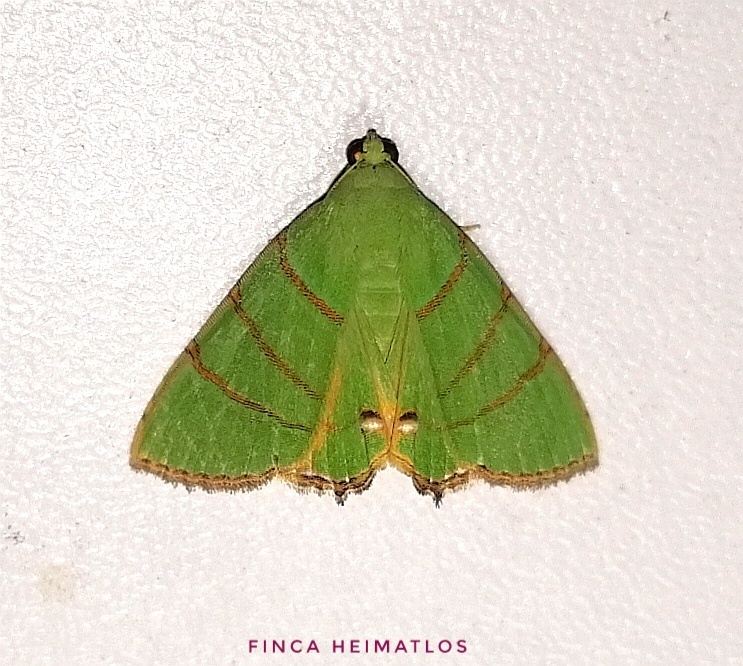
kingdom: Animalia
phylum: Arthropoda
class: Insecta
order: Lepidoptera
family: Erebidae
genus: Eulepidotis
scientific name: Eulepidotis viridissima
